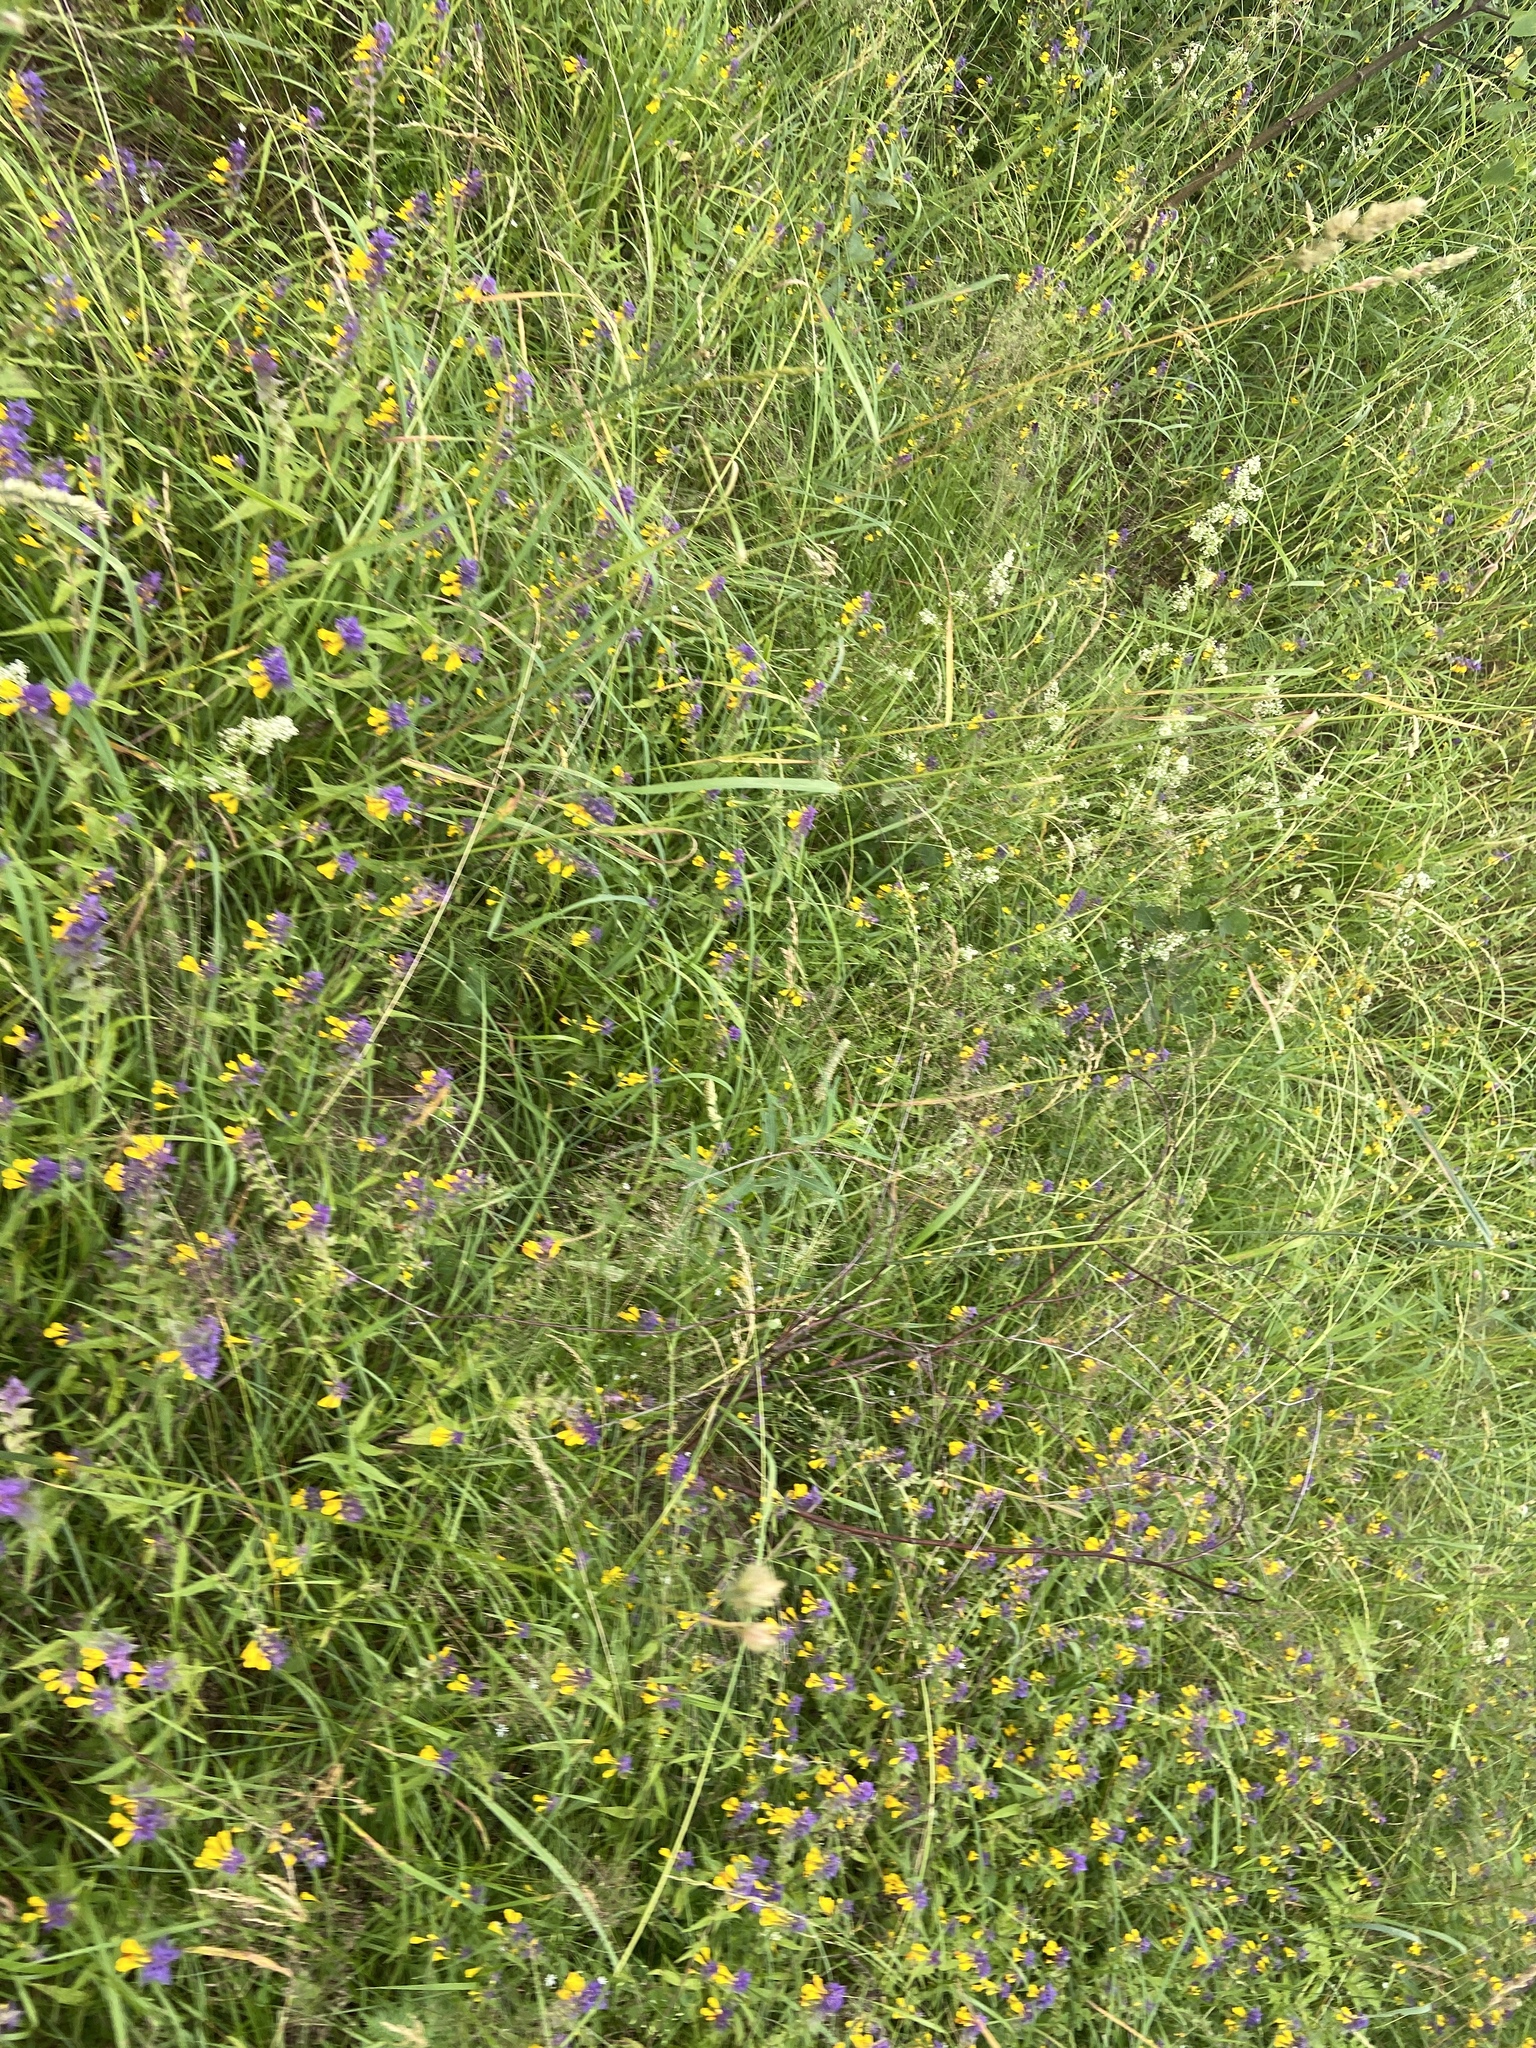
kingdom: Plantae
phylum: Tracheophyta
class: Magnoliopsida
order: Lamiales
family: Orobanchaceae
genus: Melampyrum
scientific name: Melampyrum nemorosum
